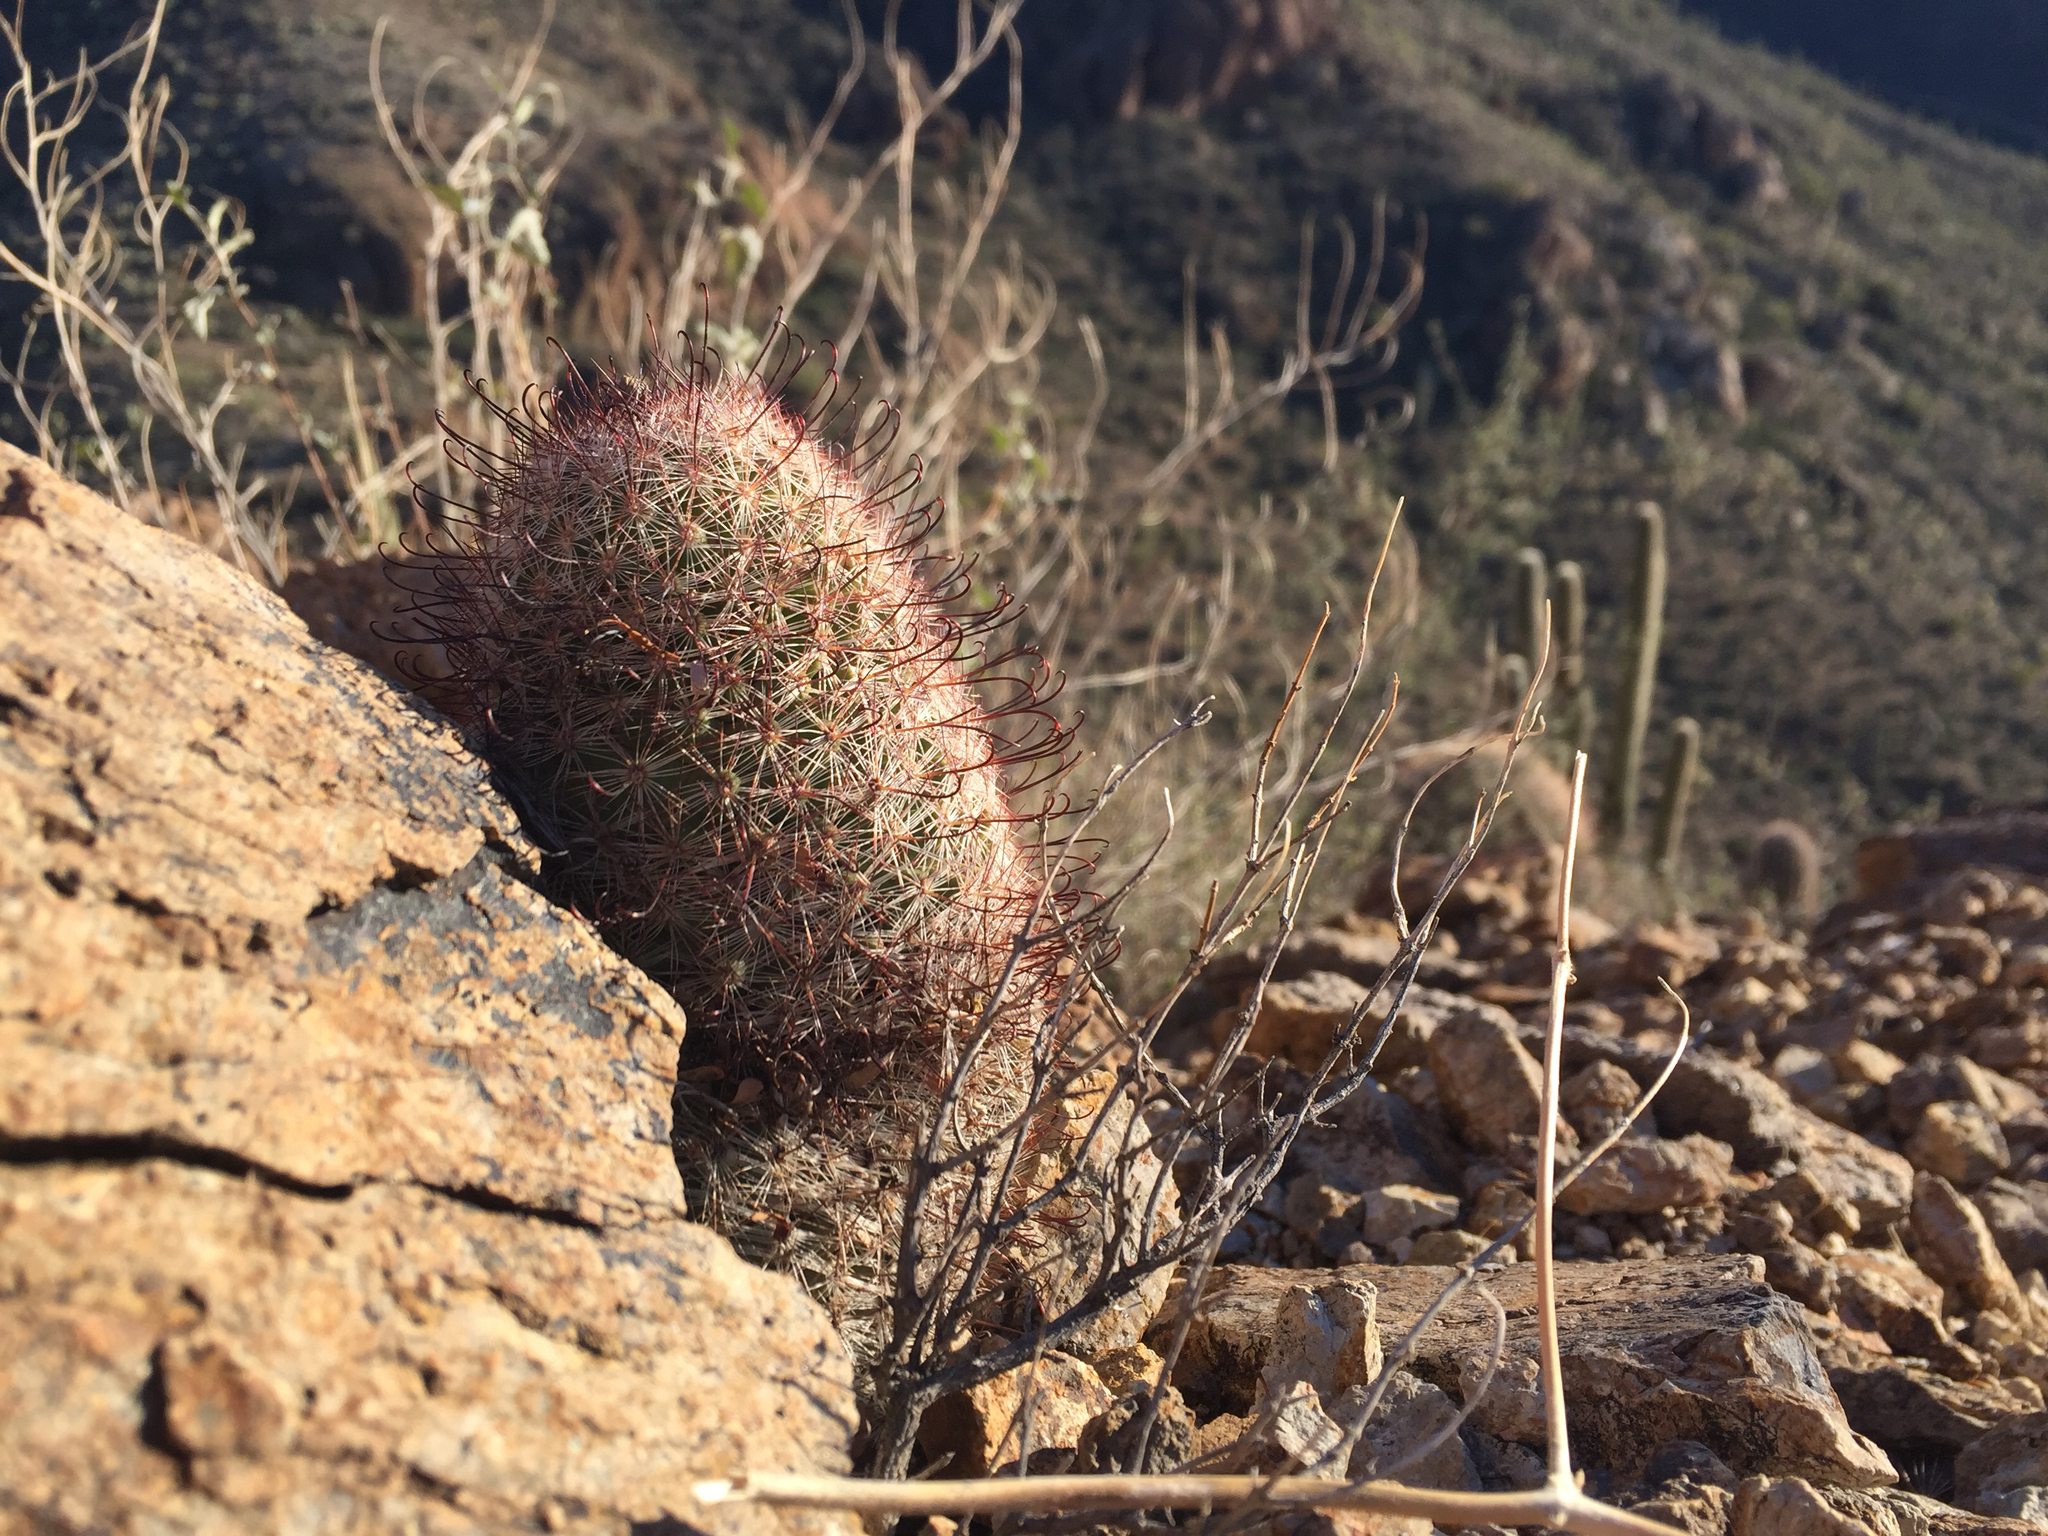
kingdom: Plantae
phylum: Tracheophyta
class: Magnoliopsida
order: Caryophyllales
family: Cactaceae
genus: Cochemiea
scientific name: Cochemiea grahamii
